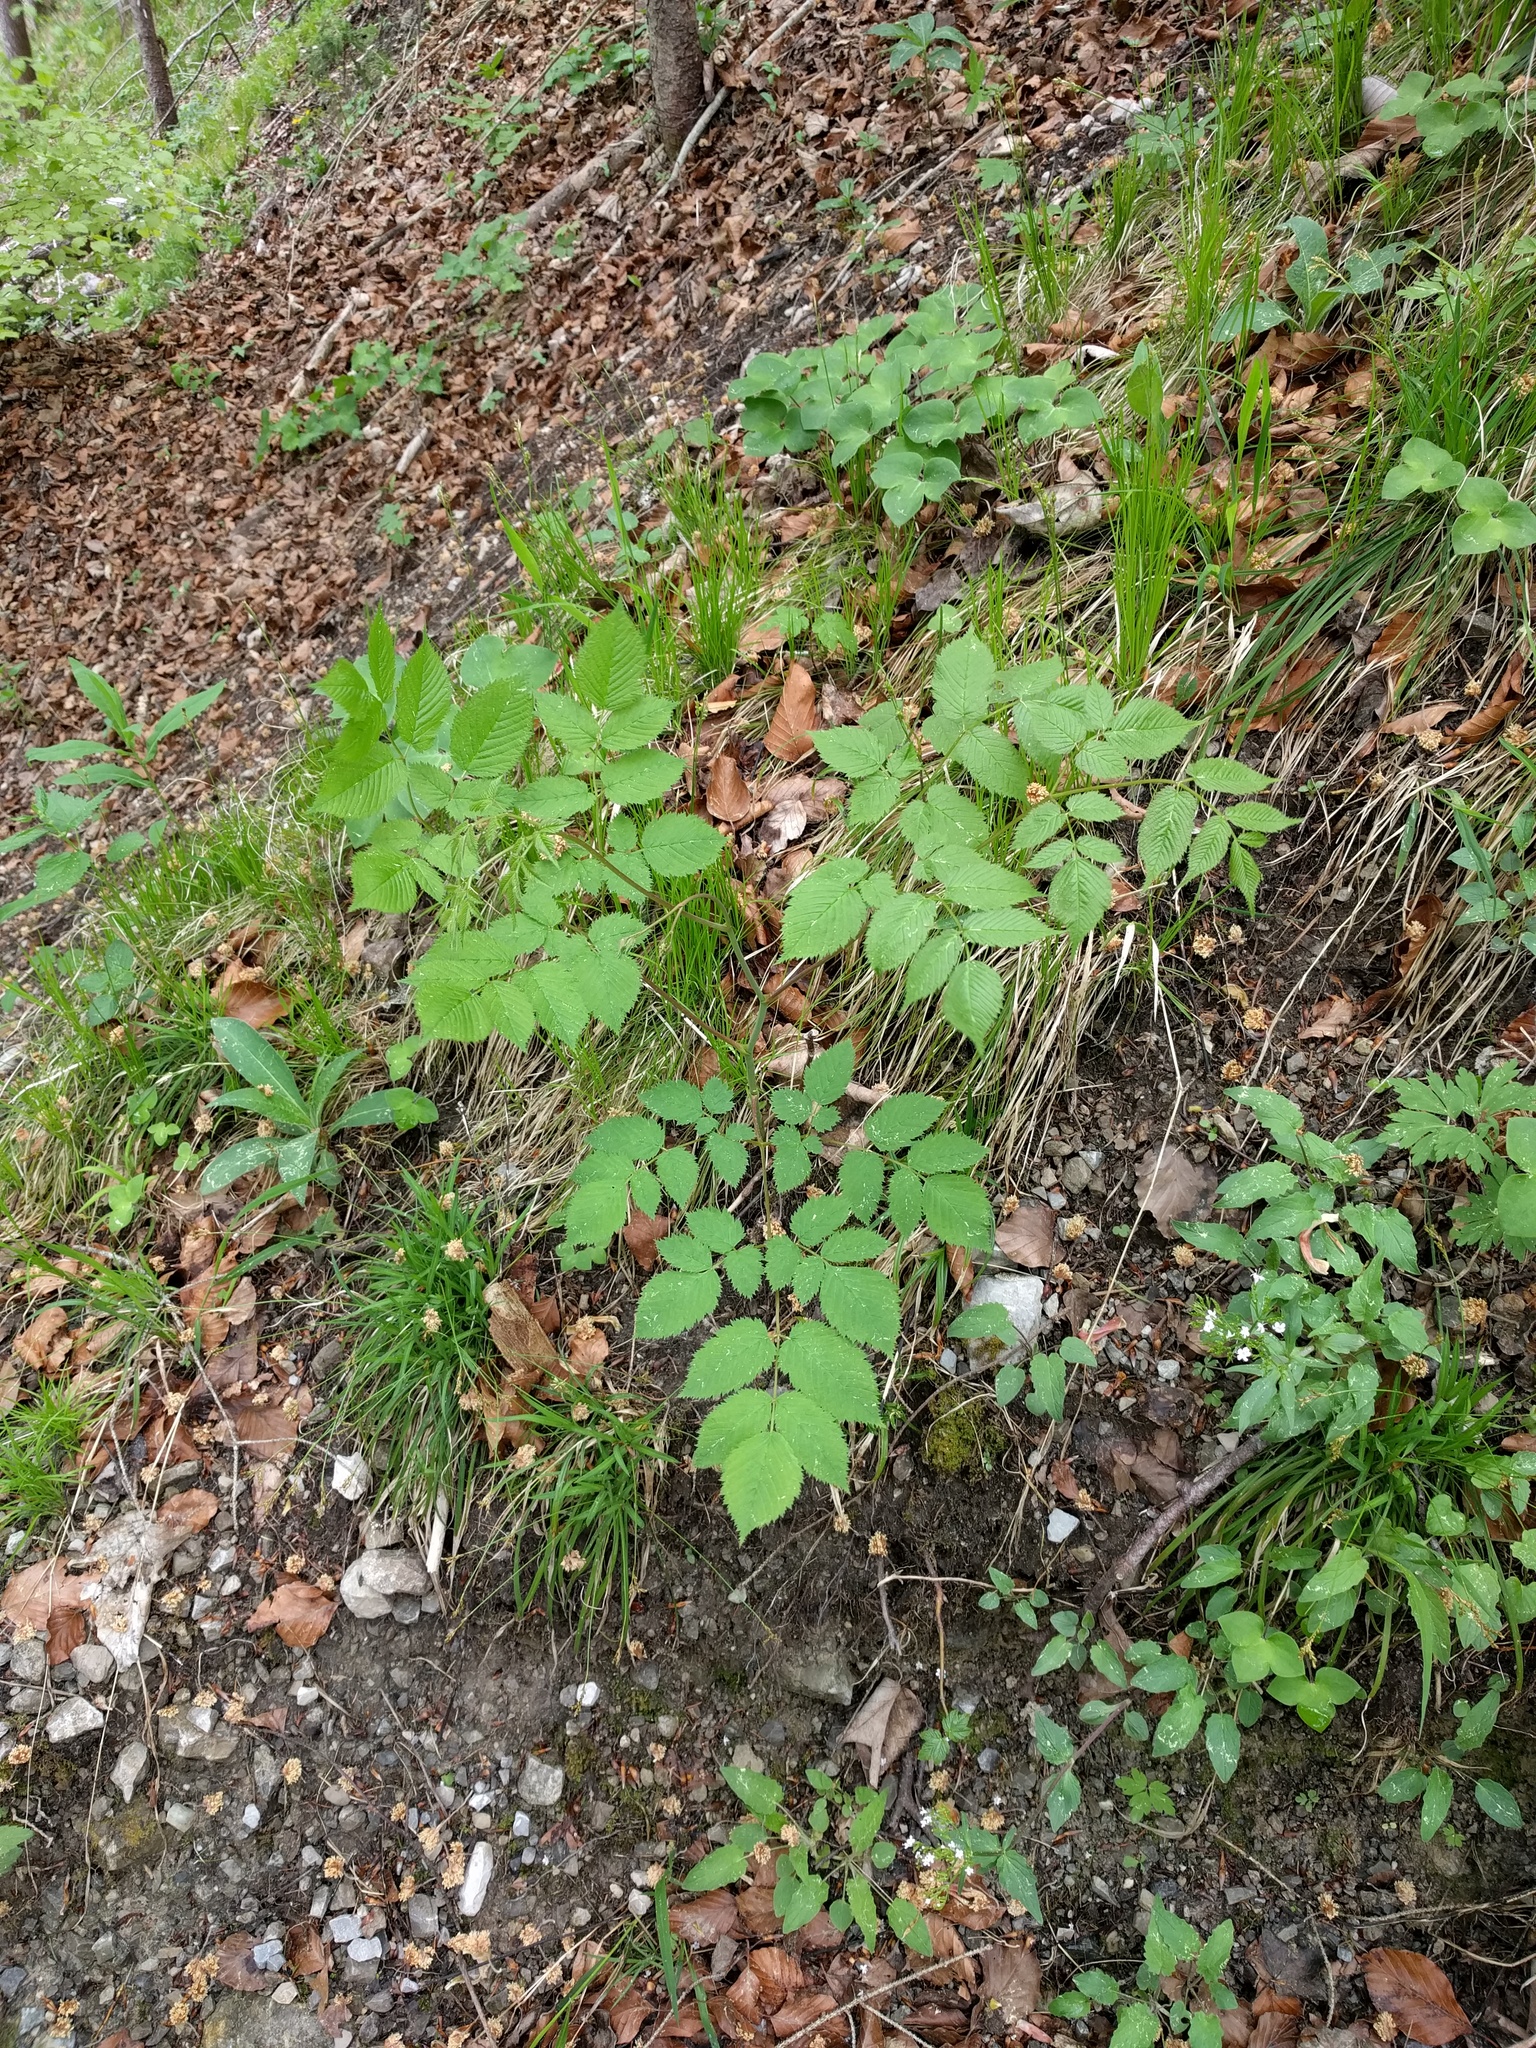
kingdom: Plantae
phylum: Tracheophyta
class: Magnoliopsida
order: Rosales
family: Rosaceae
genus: Aruncus
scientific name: Aruncus dioicus
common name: Buck's-beard
